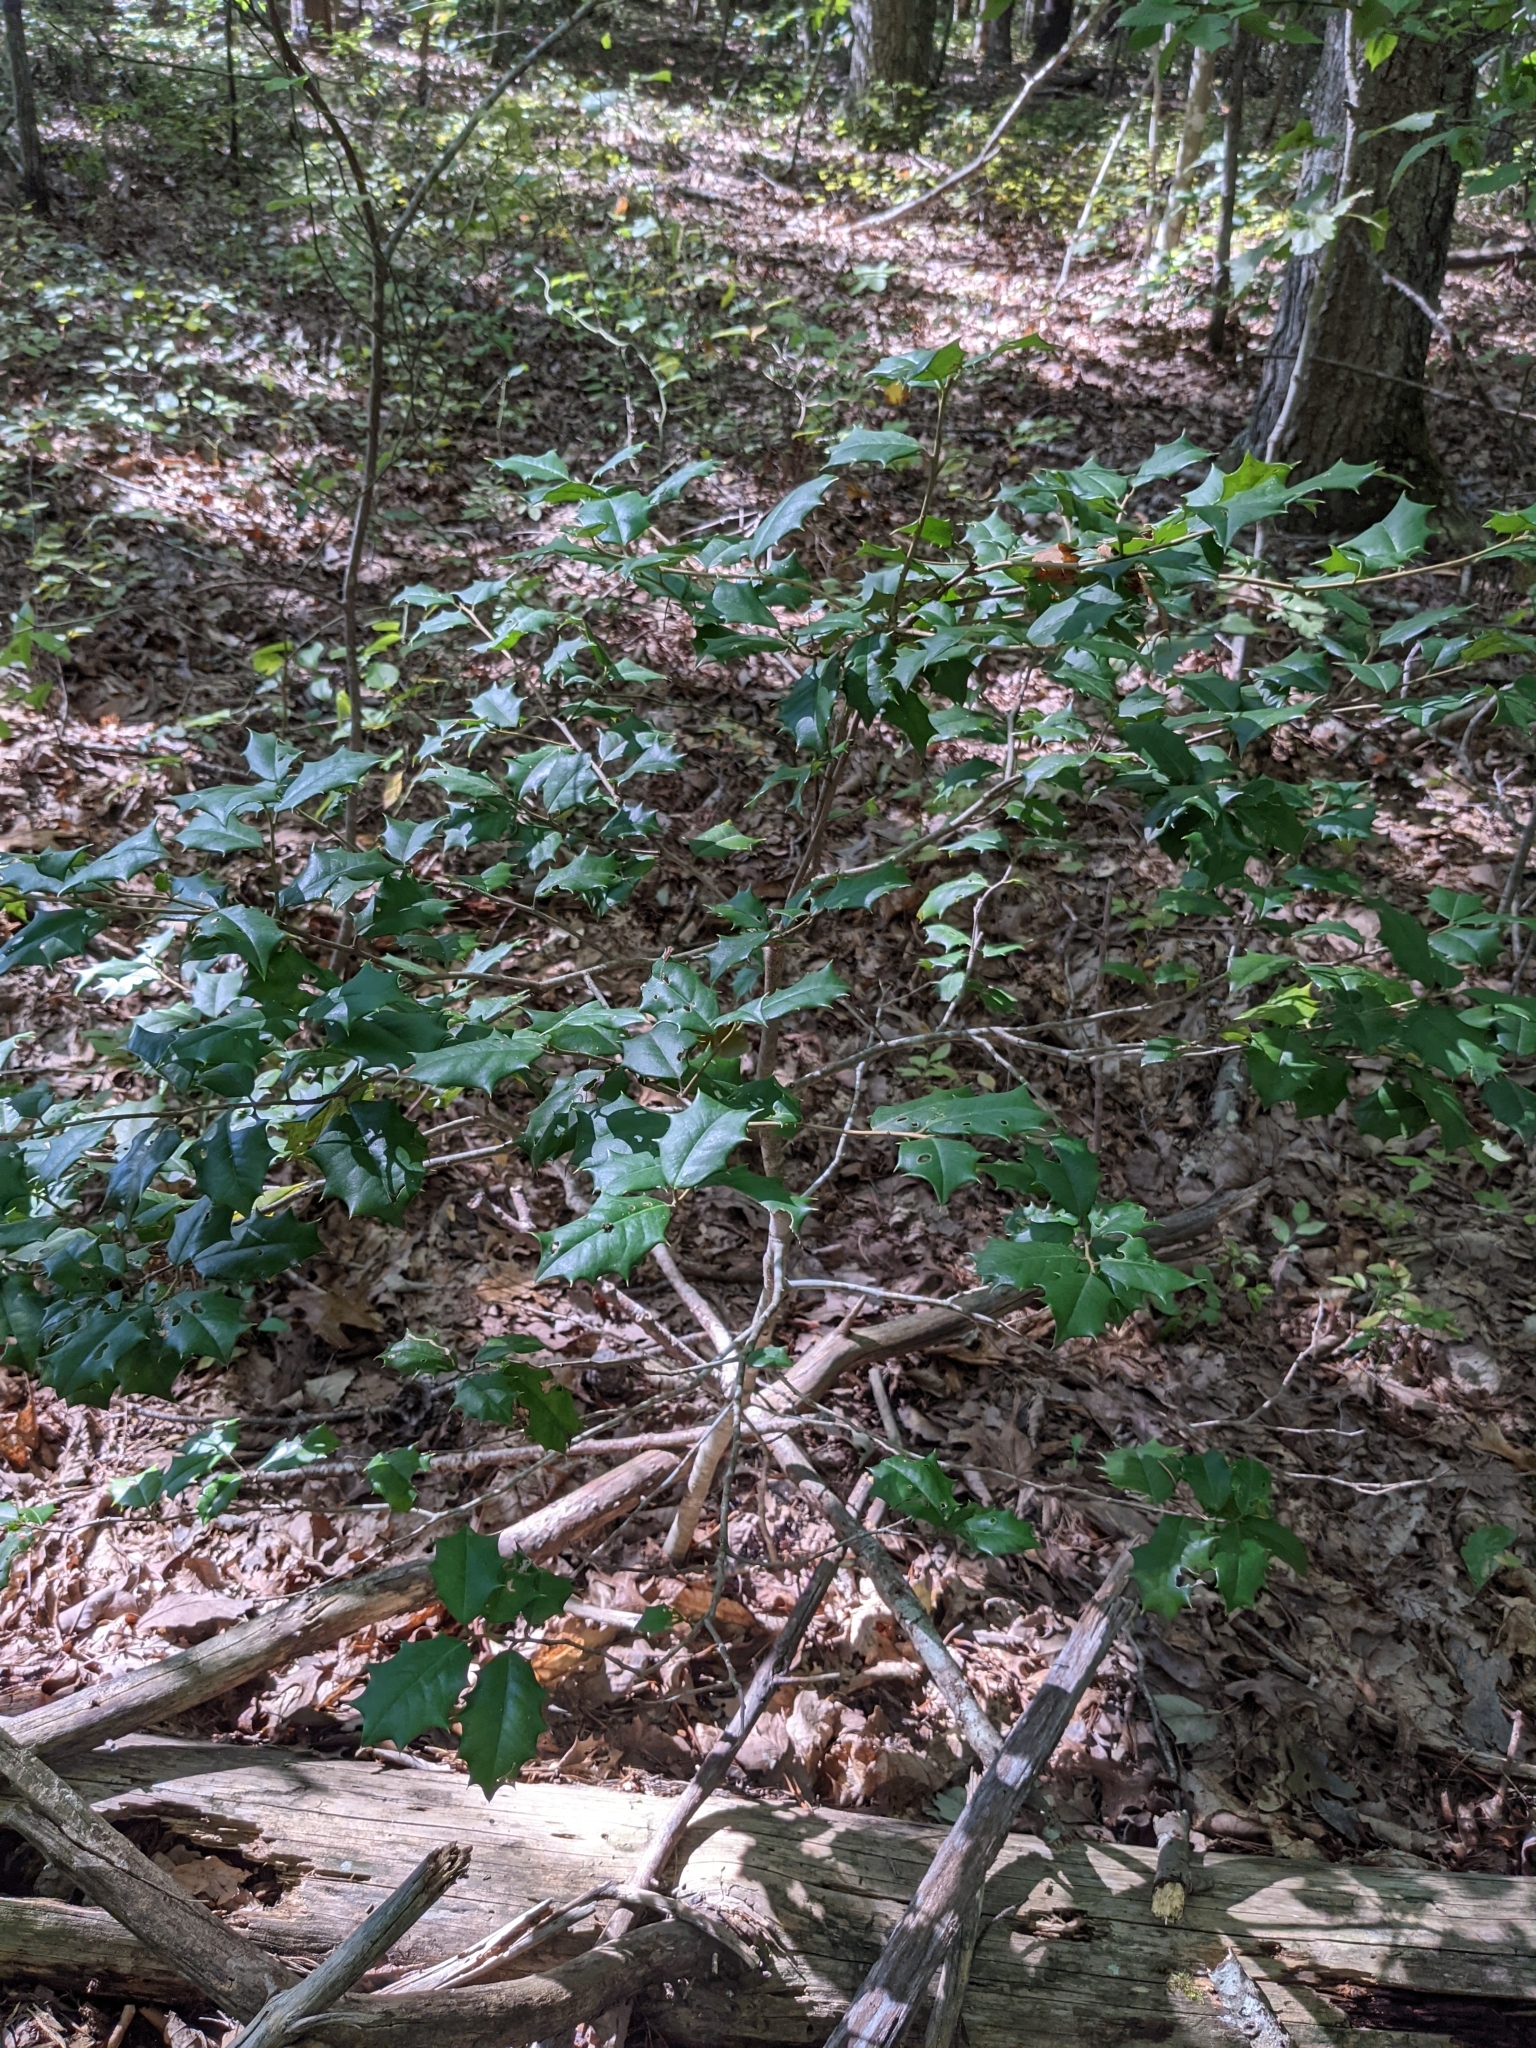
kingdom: Plantae
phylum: Tracheophyta
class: Magnoliopsida
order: Aquifoliales
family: Aquifoliaceae
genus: Ilex
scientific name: Ilex opaca
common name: American holly
